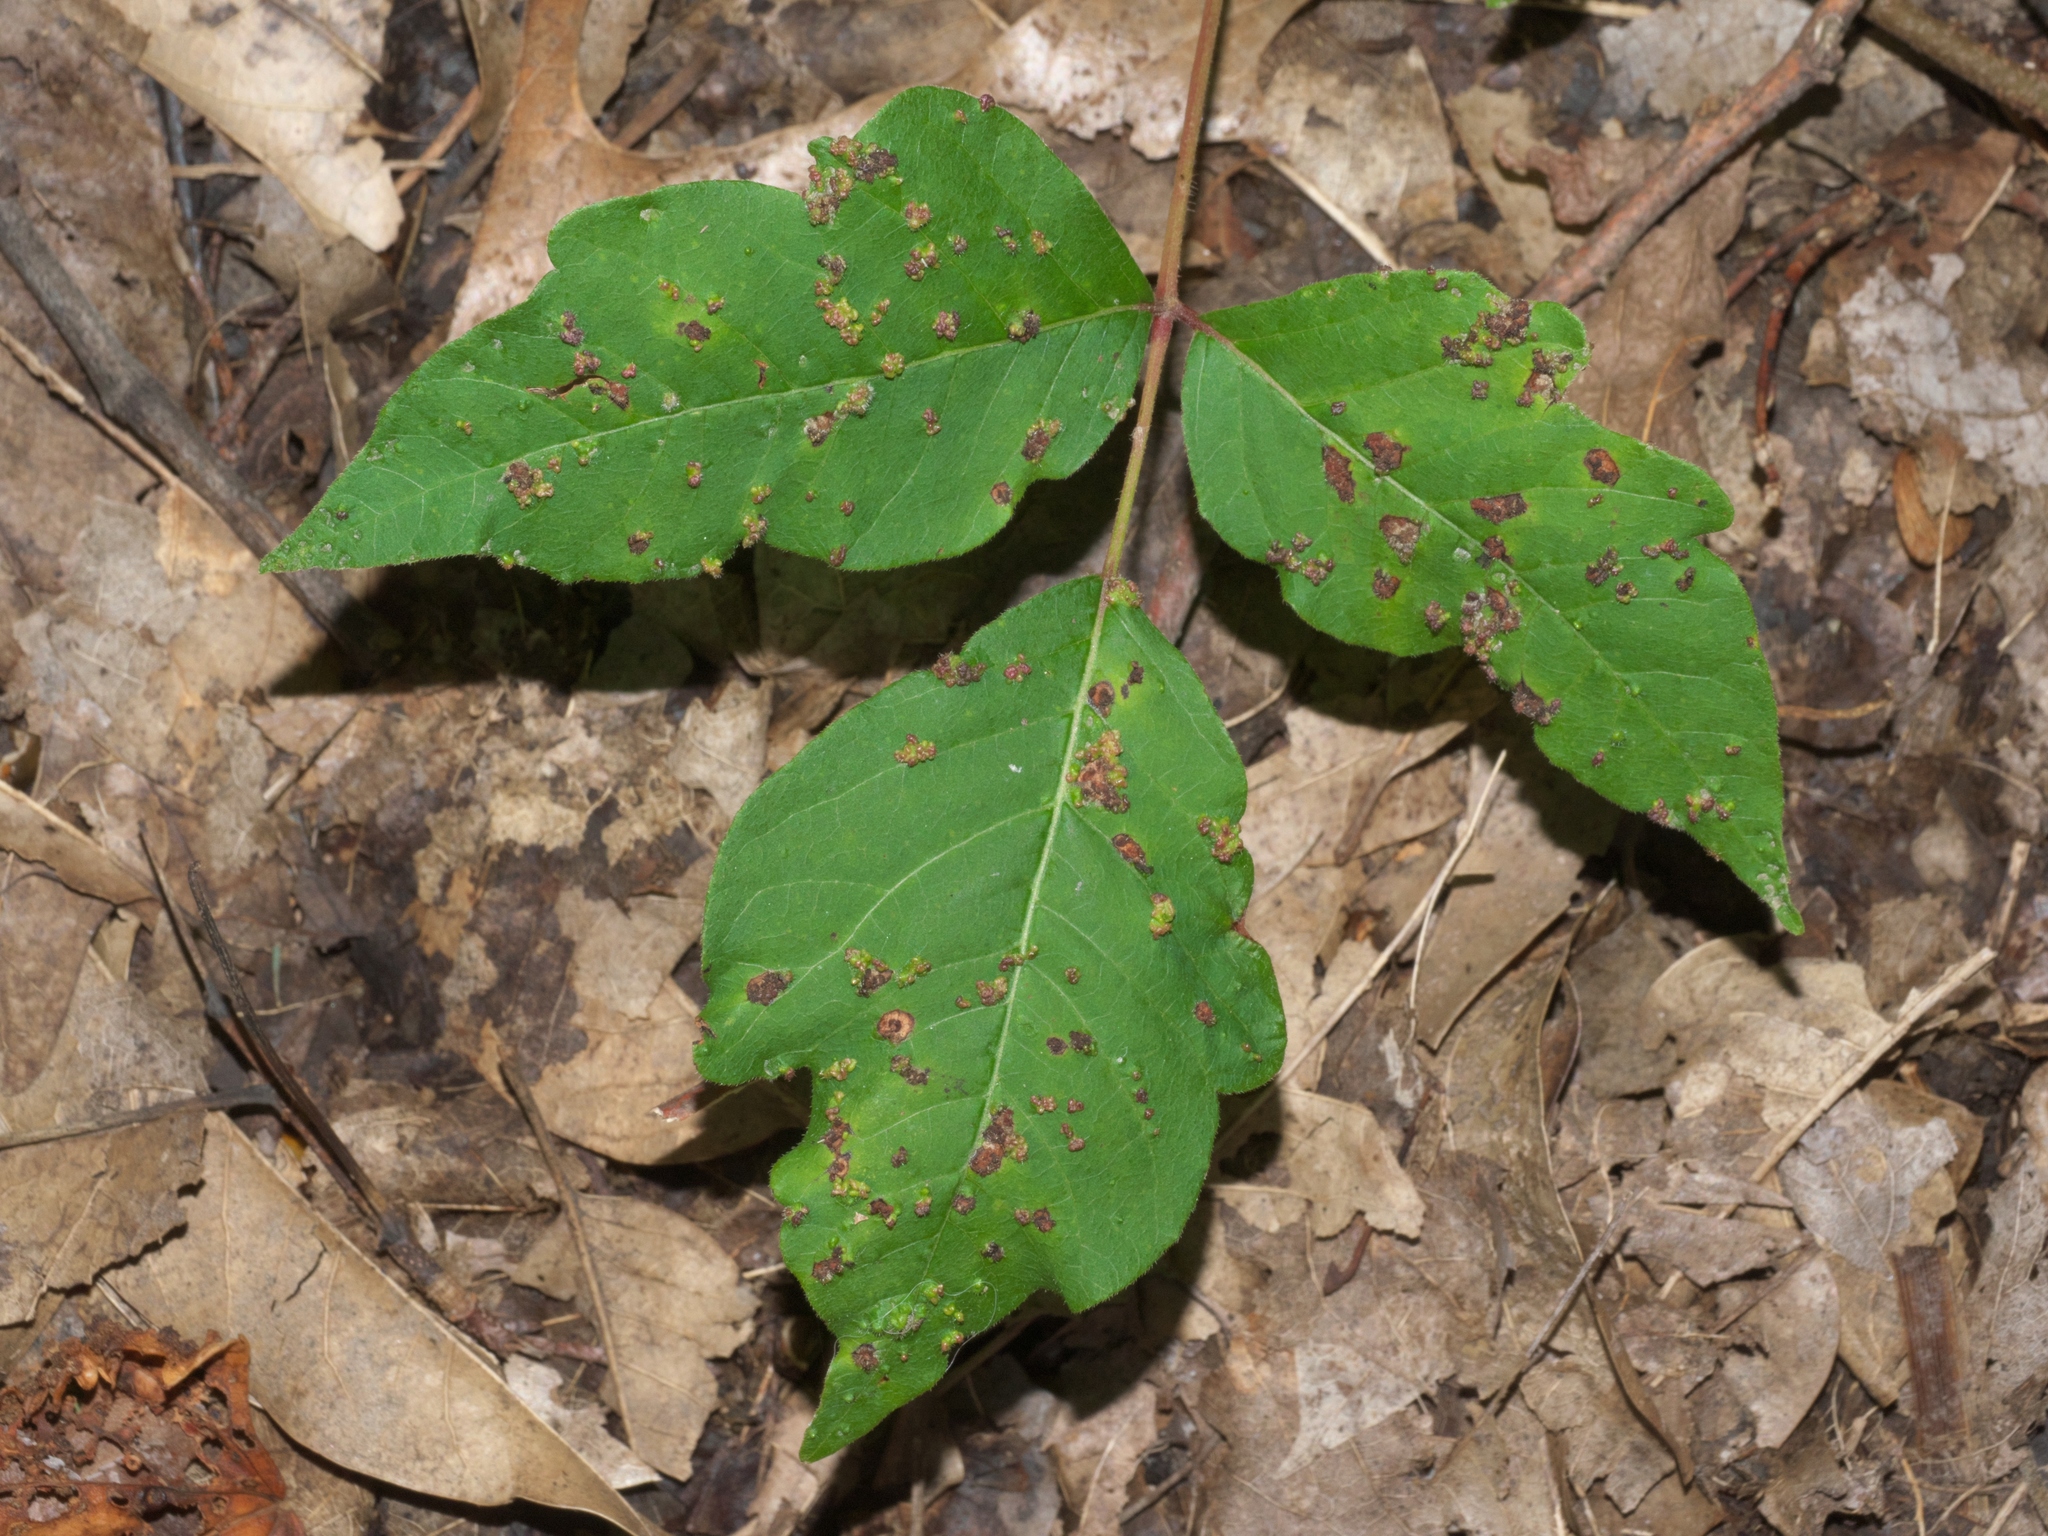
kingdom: Plantae
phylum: Tracheophyta
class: Magnoliopsida
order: Sapindales
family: Anacardiaceae
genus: Toxicodendron
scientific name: Toxicodendron radicans
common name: Poison ivy
